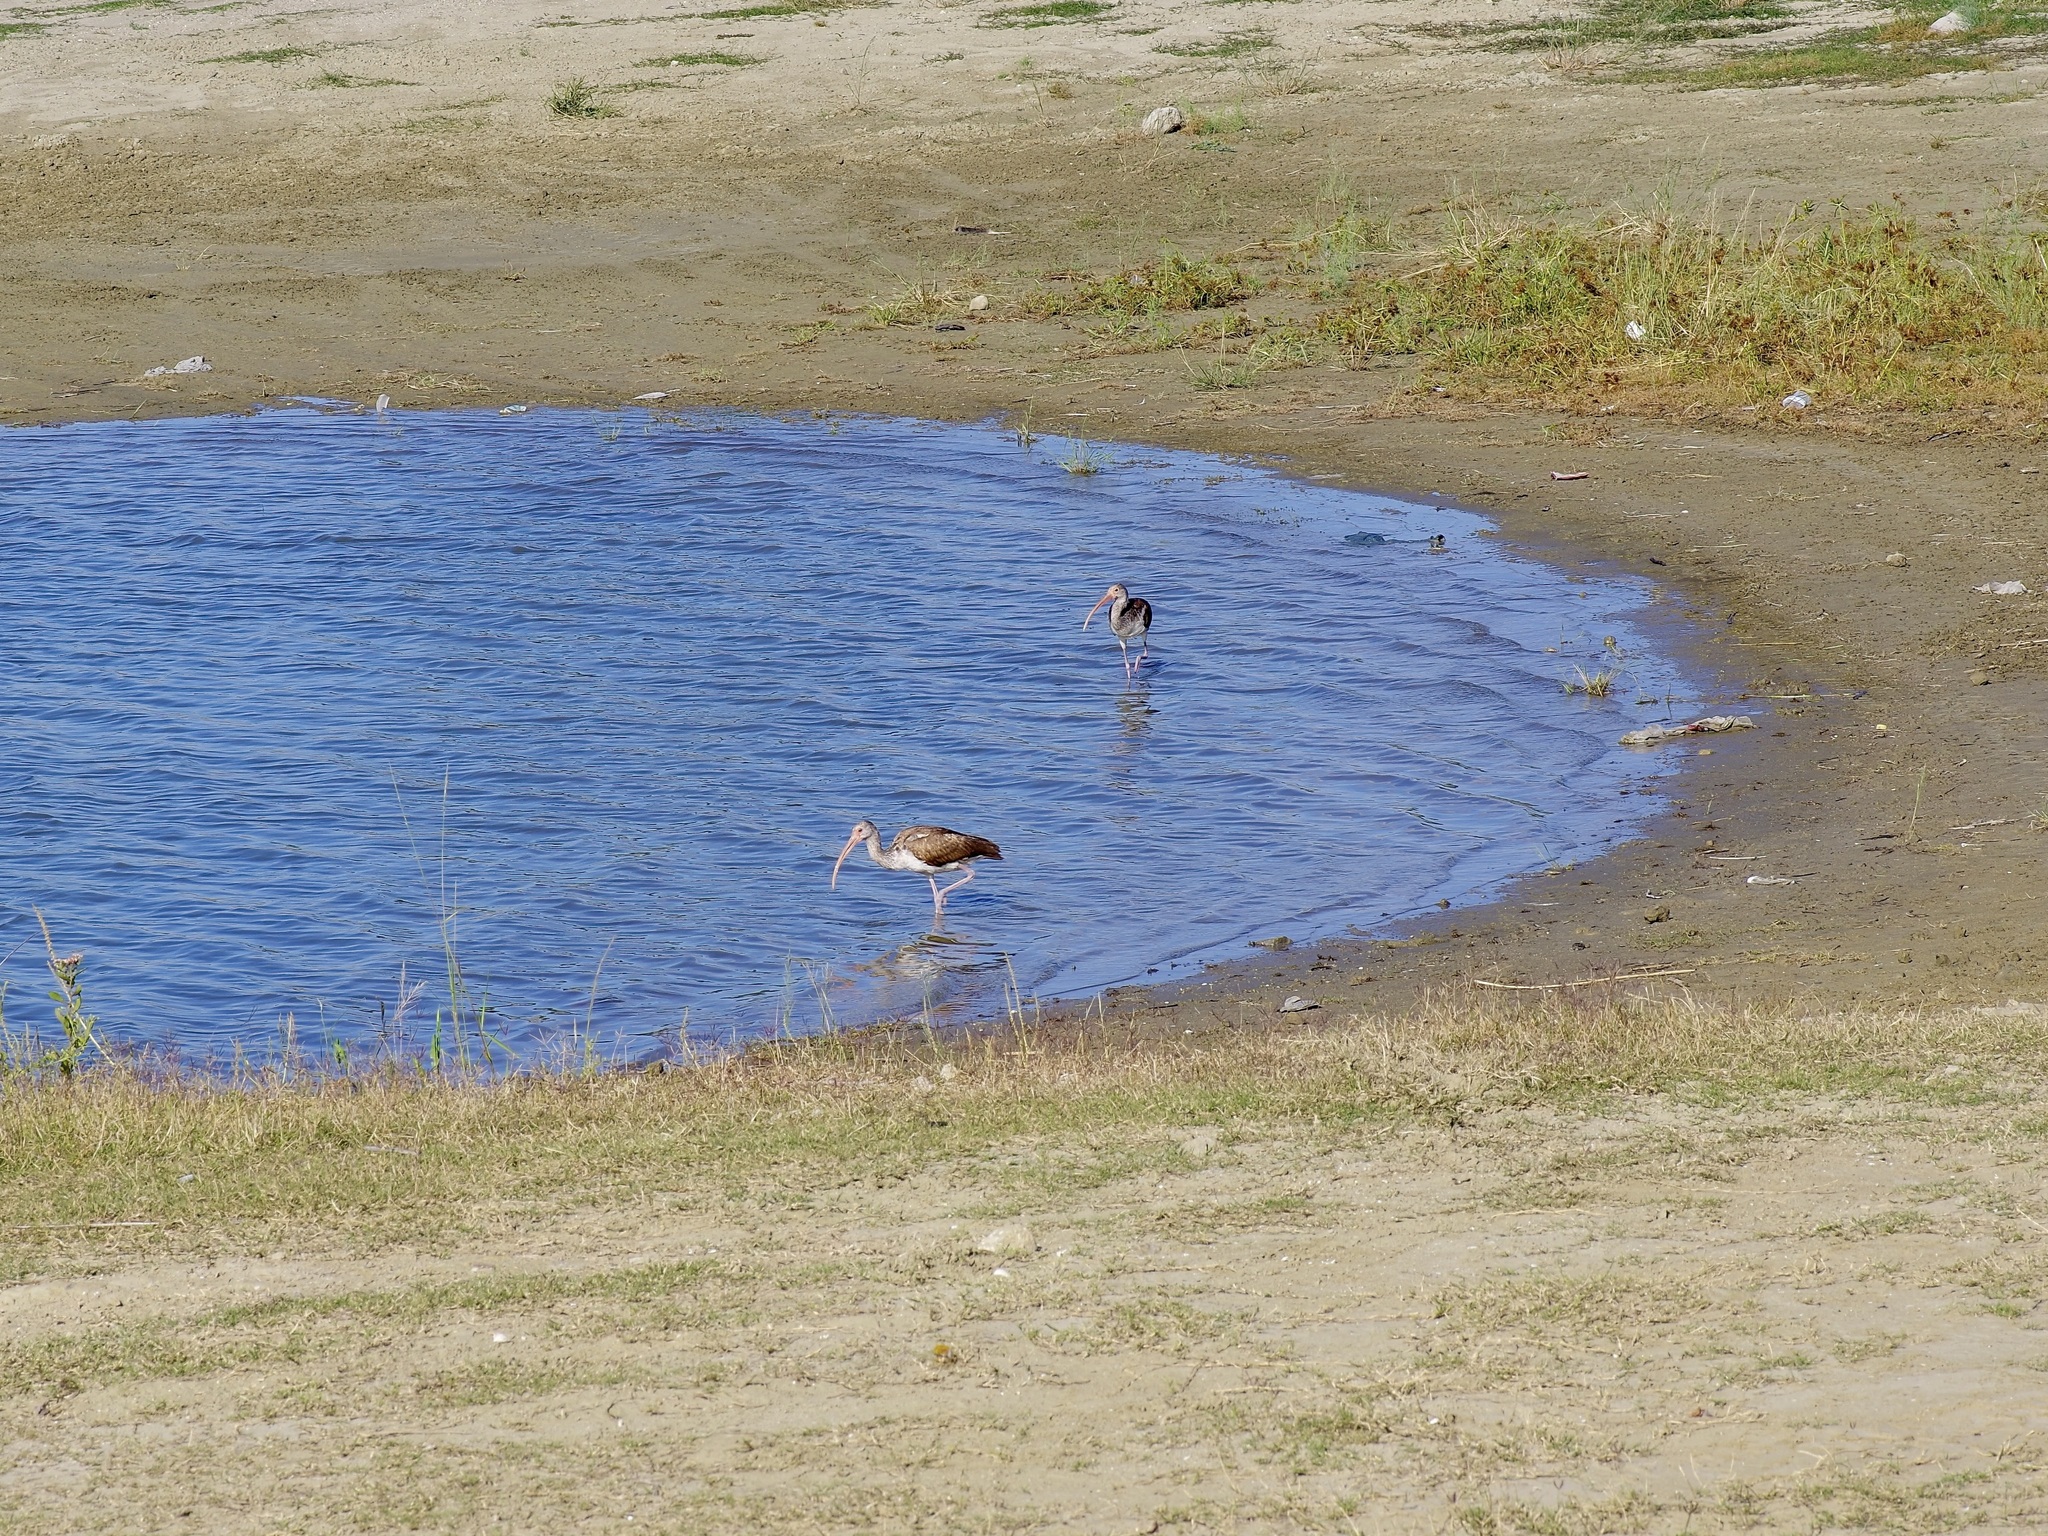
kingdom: Animalia
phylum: Chordata
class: Aves
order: Pelecaniformes
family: Threskiornithidae
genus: Eudocimus
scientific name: Eudocimus albus
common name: White ibis
